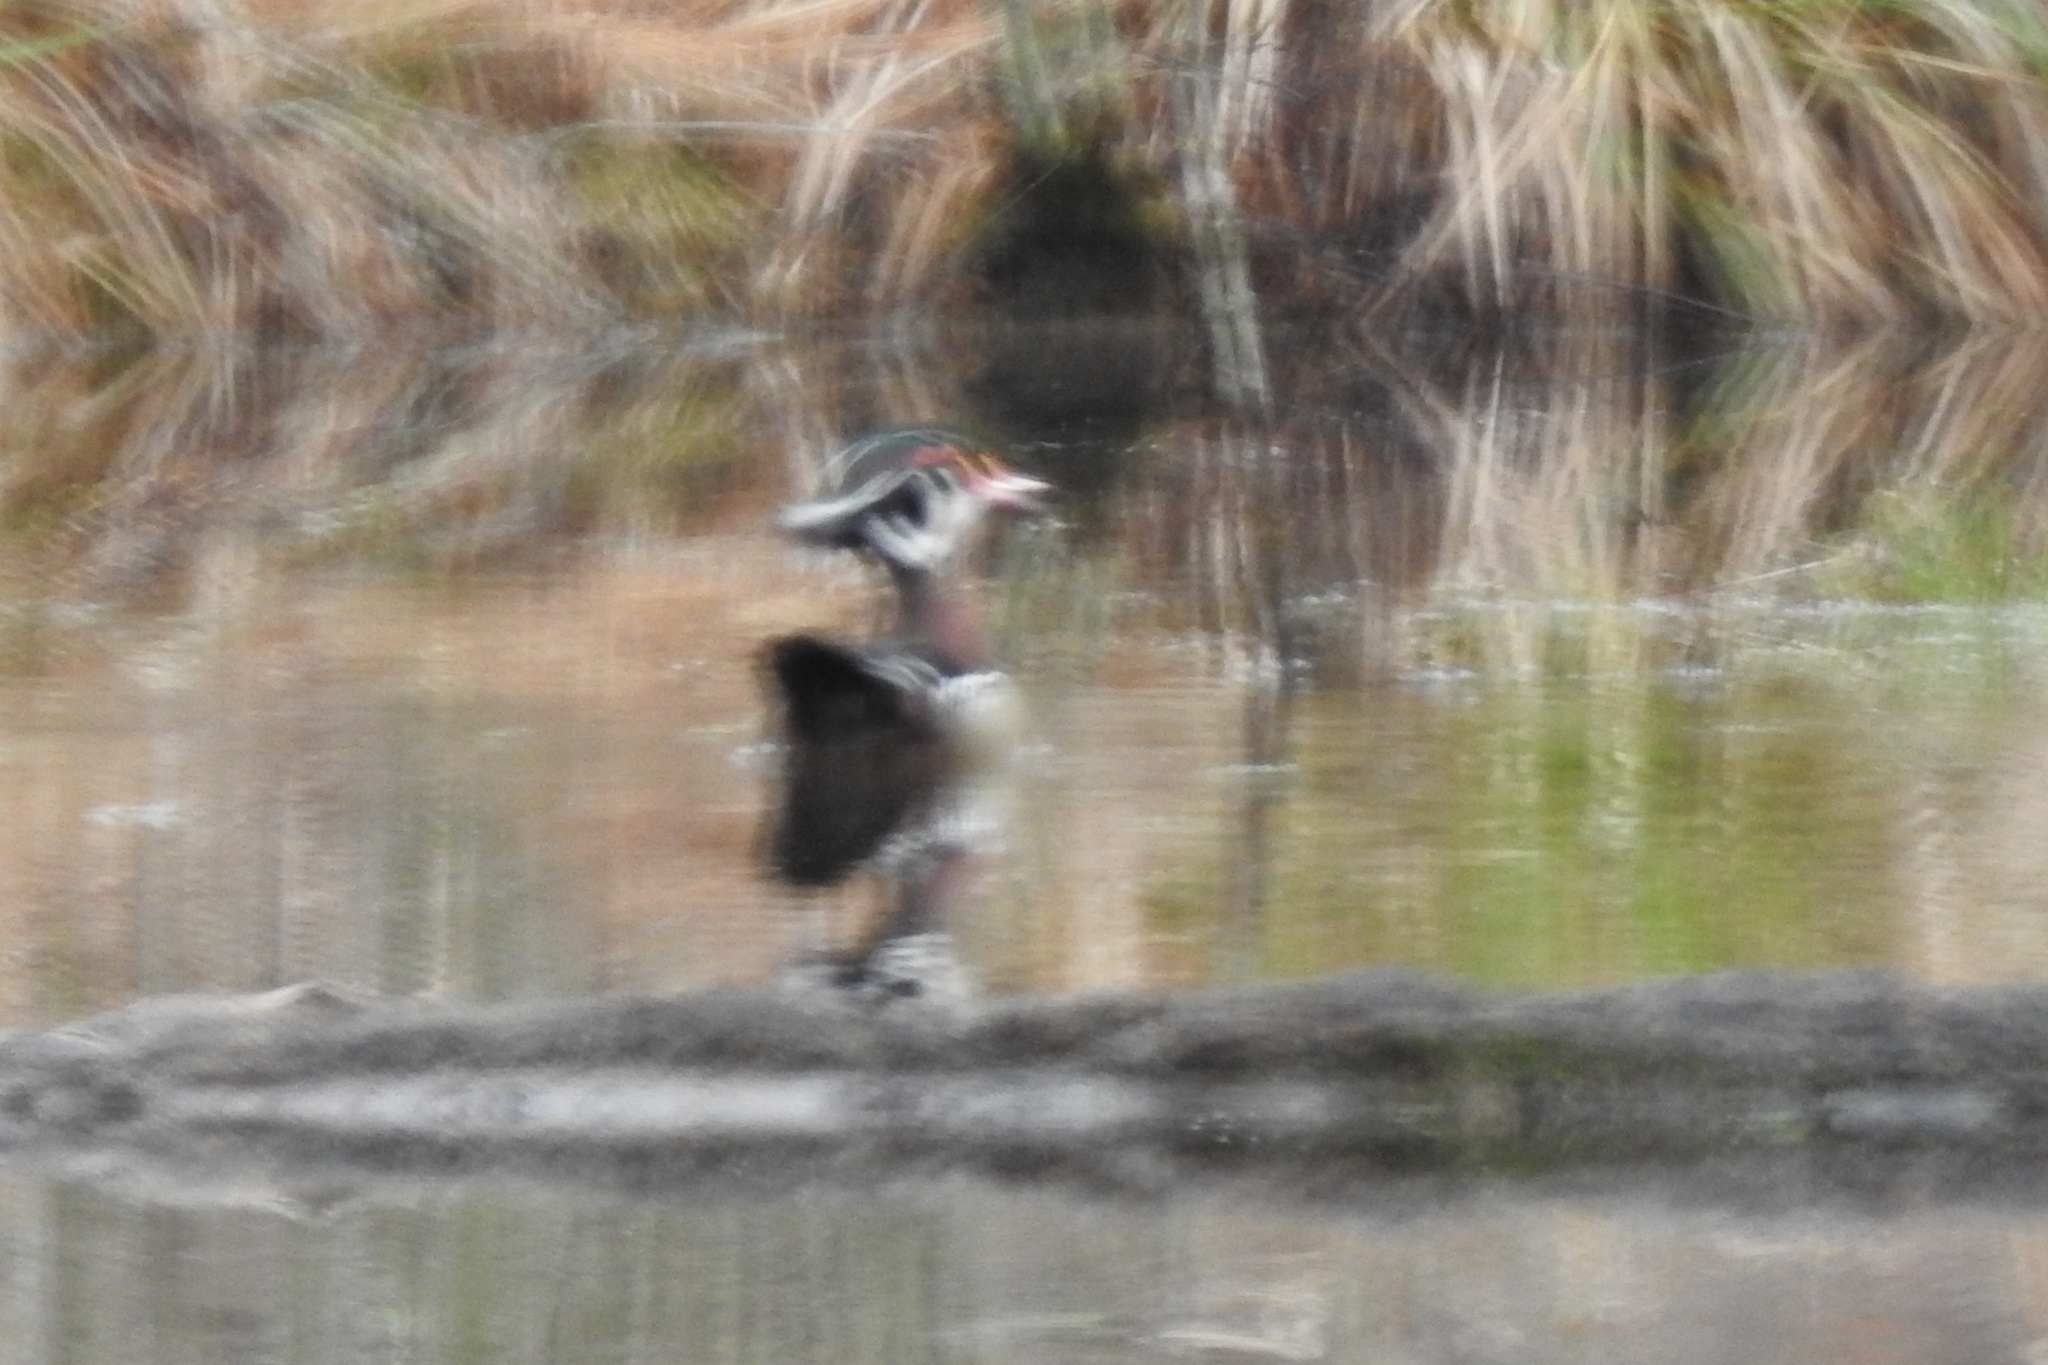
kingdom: Animalia
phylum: Chordata
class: Aves
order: Anseriformes
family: Anatidae
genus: Aix
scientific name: Aix sponsa
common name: Wood duck
